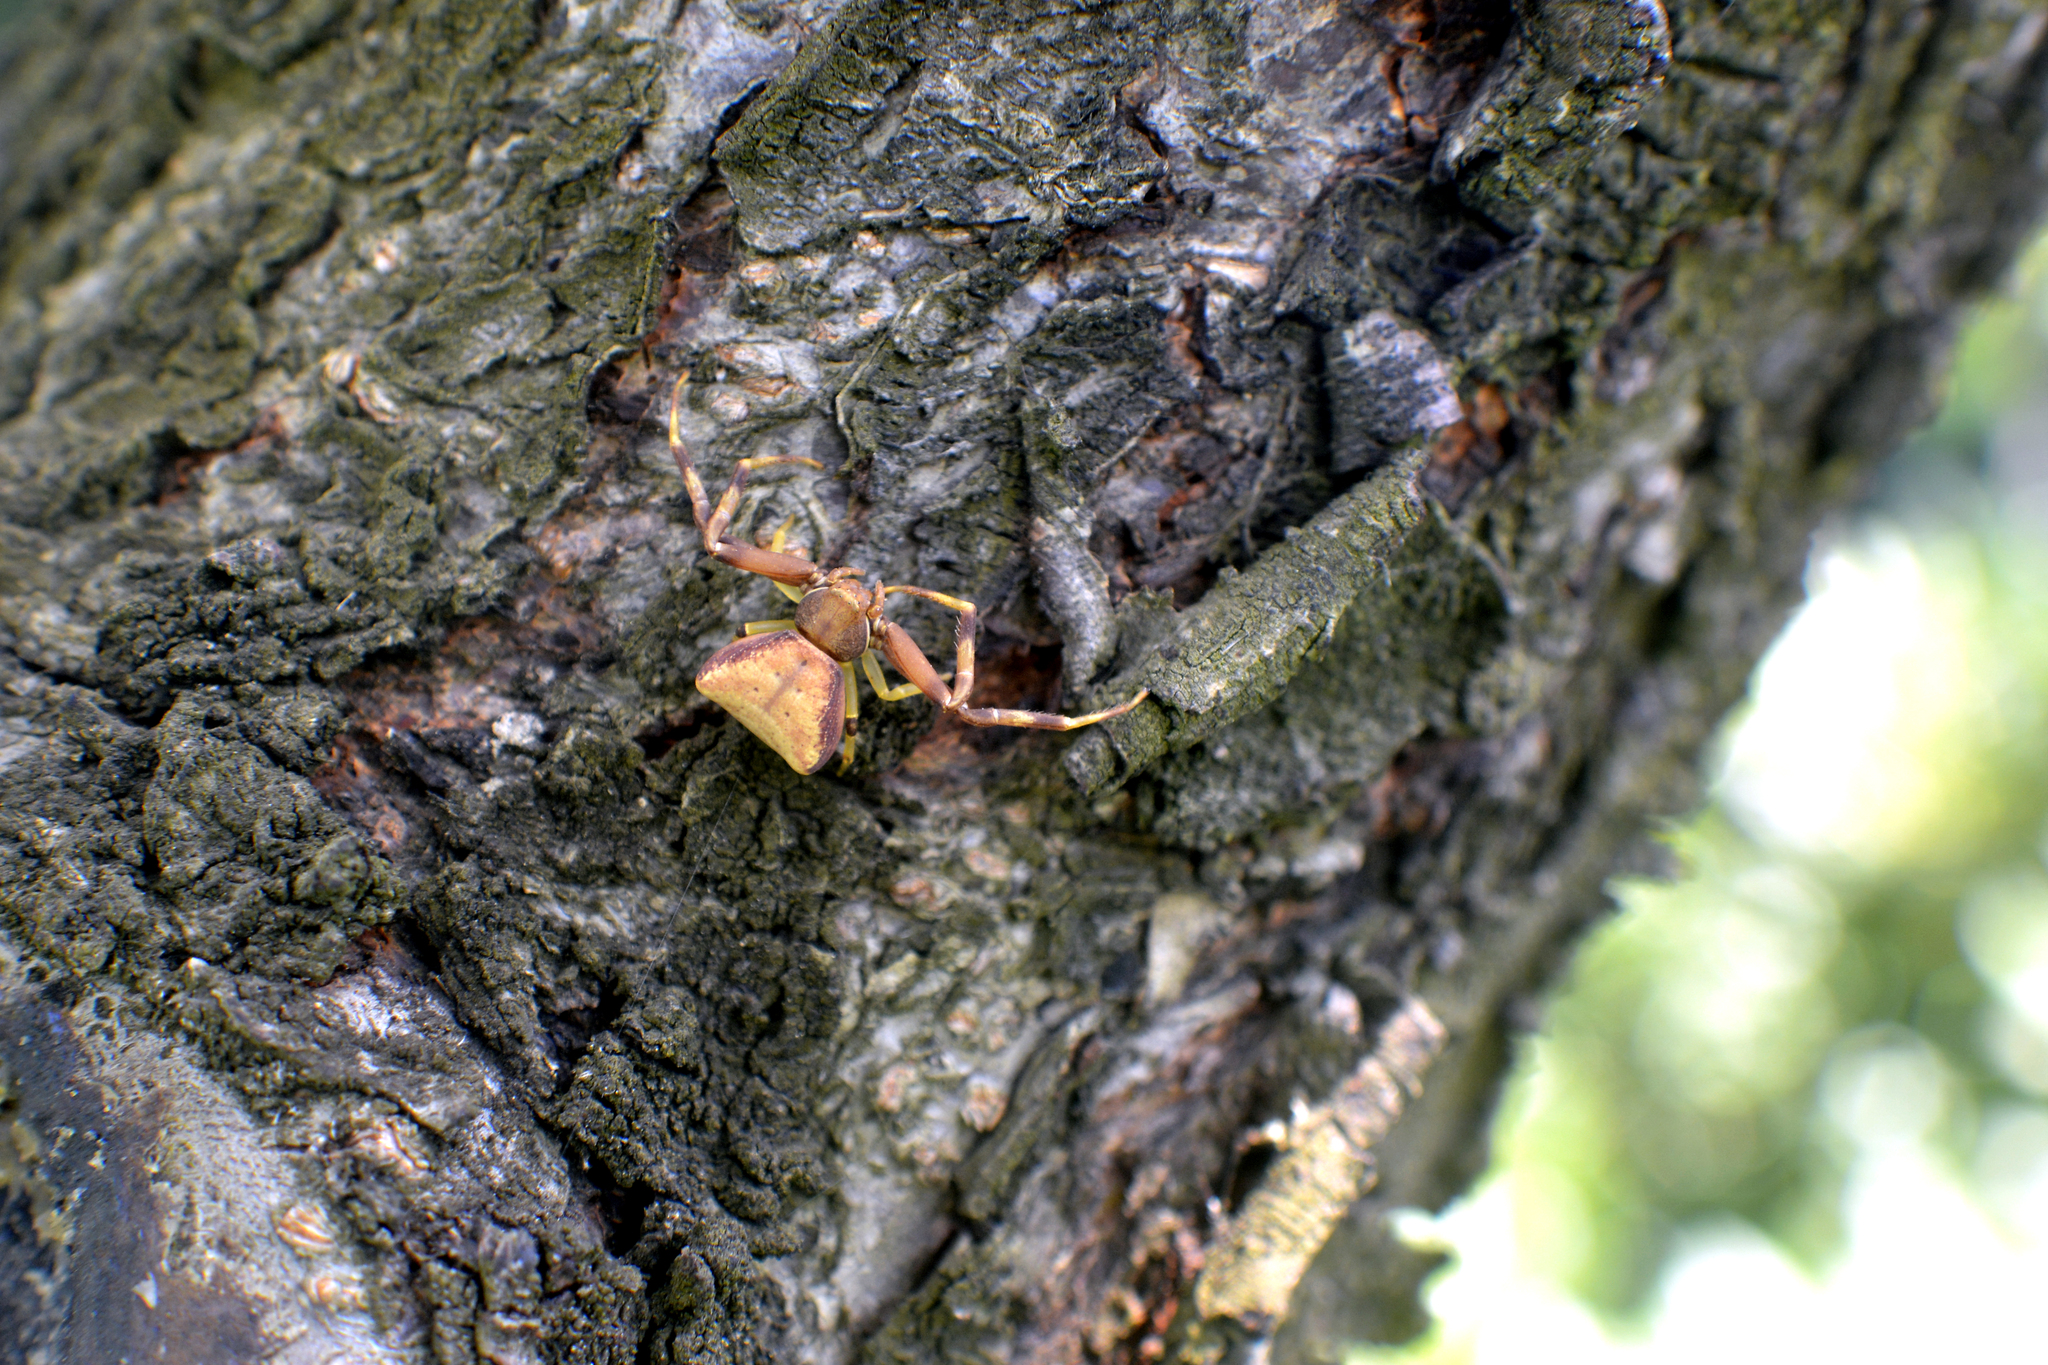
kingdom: Animalia
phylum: Arthropoda
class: Arachnida
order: Araneae
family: Thomisidae
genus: Pistius
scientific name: Pistius truncatus
